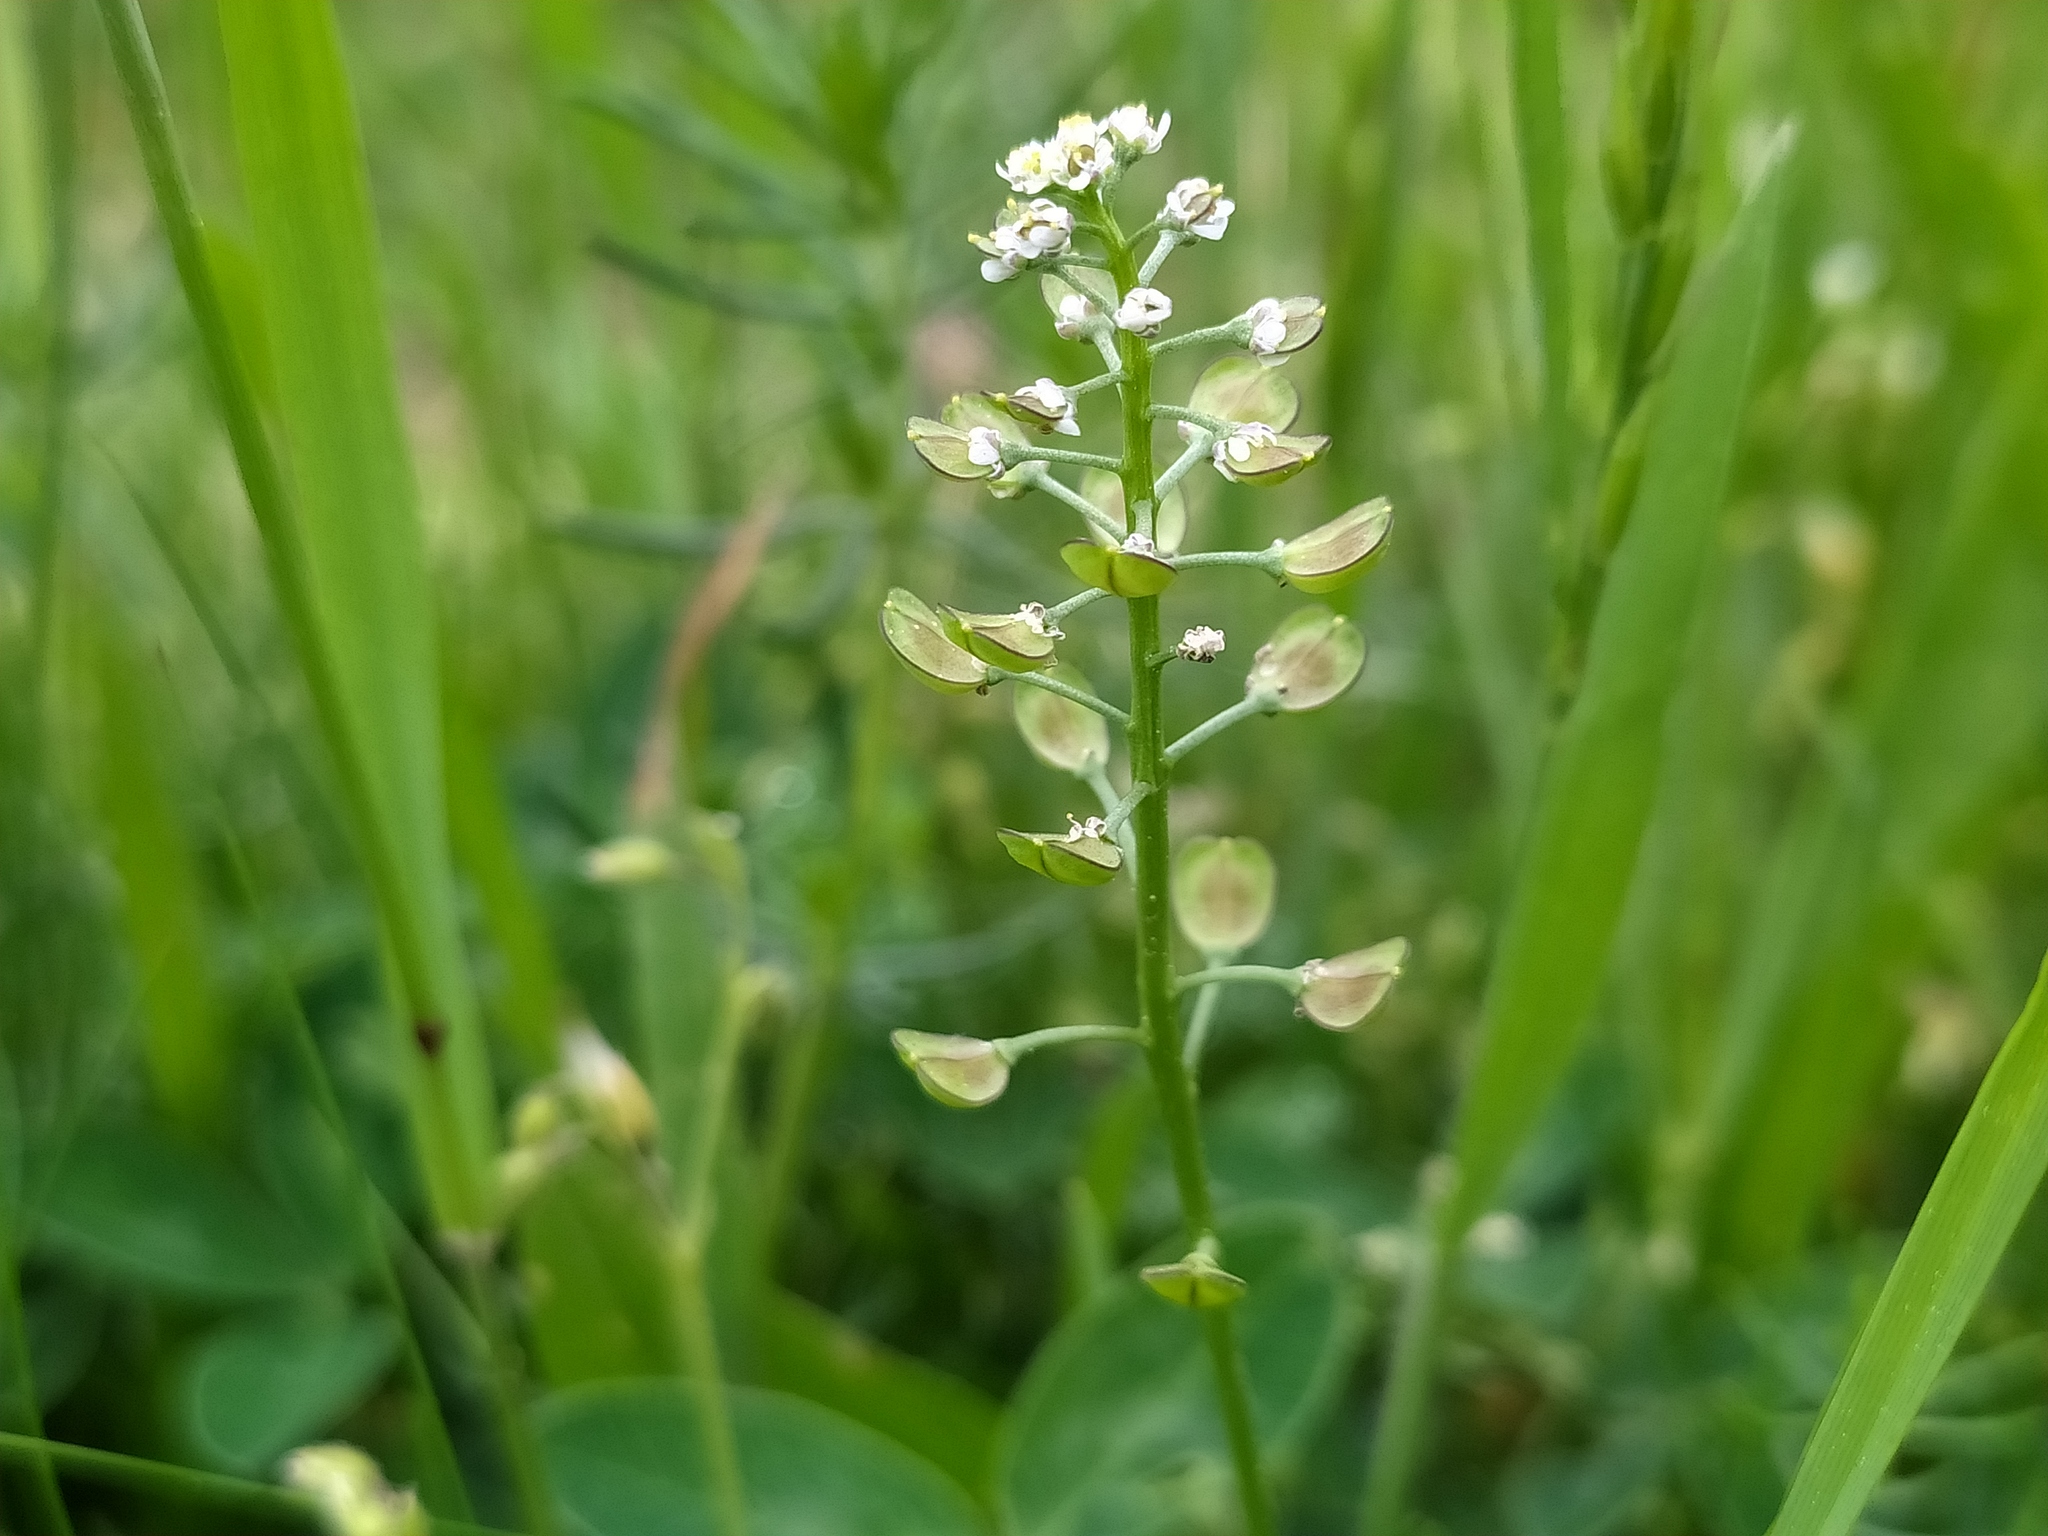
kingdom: Plantae
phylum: Tracheophyta
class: Magnoliopsida
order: Brassicales
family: Brassicaceae
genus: Teesdalia
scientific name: Teesdalia nudicaulis
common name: Shepherd's cress
